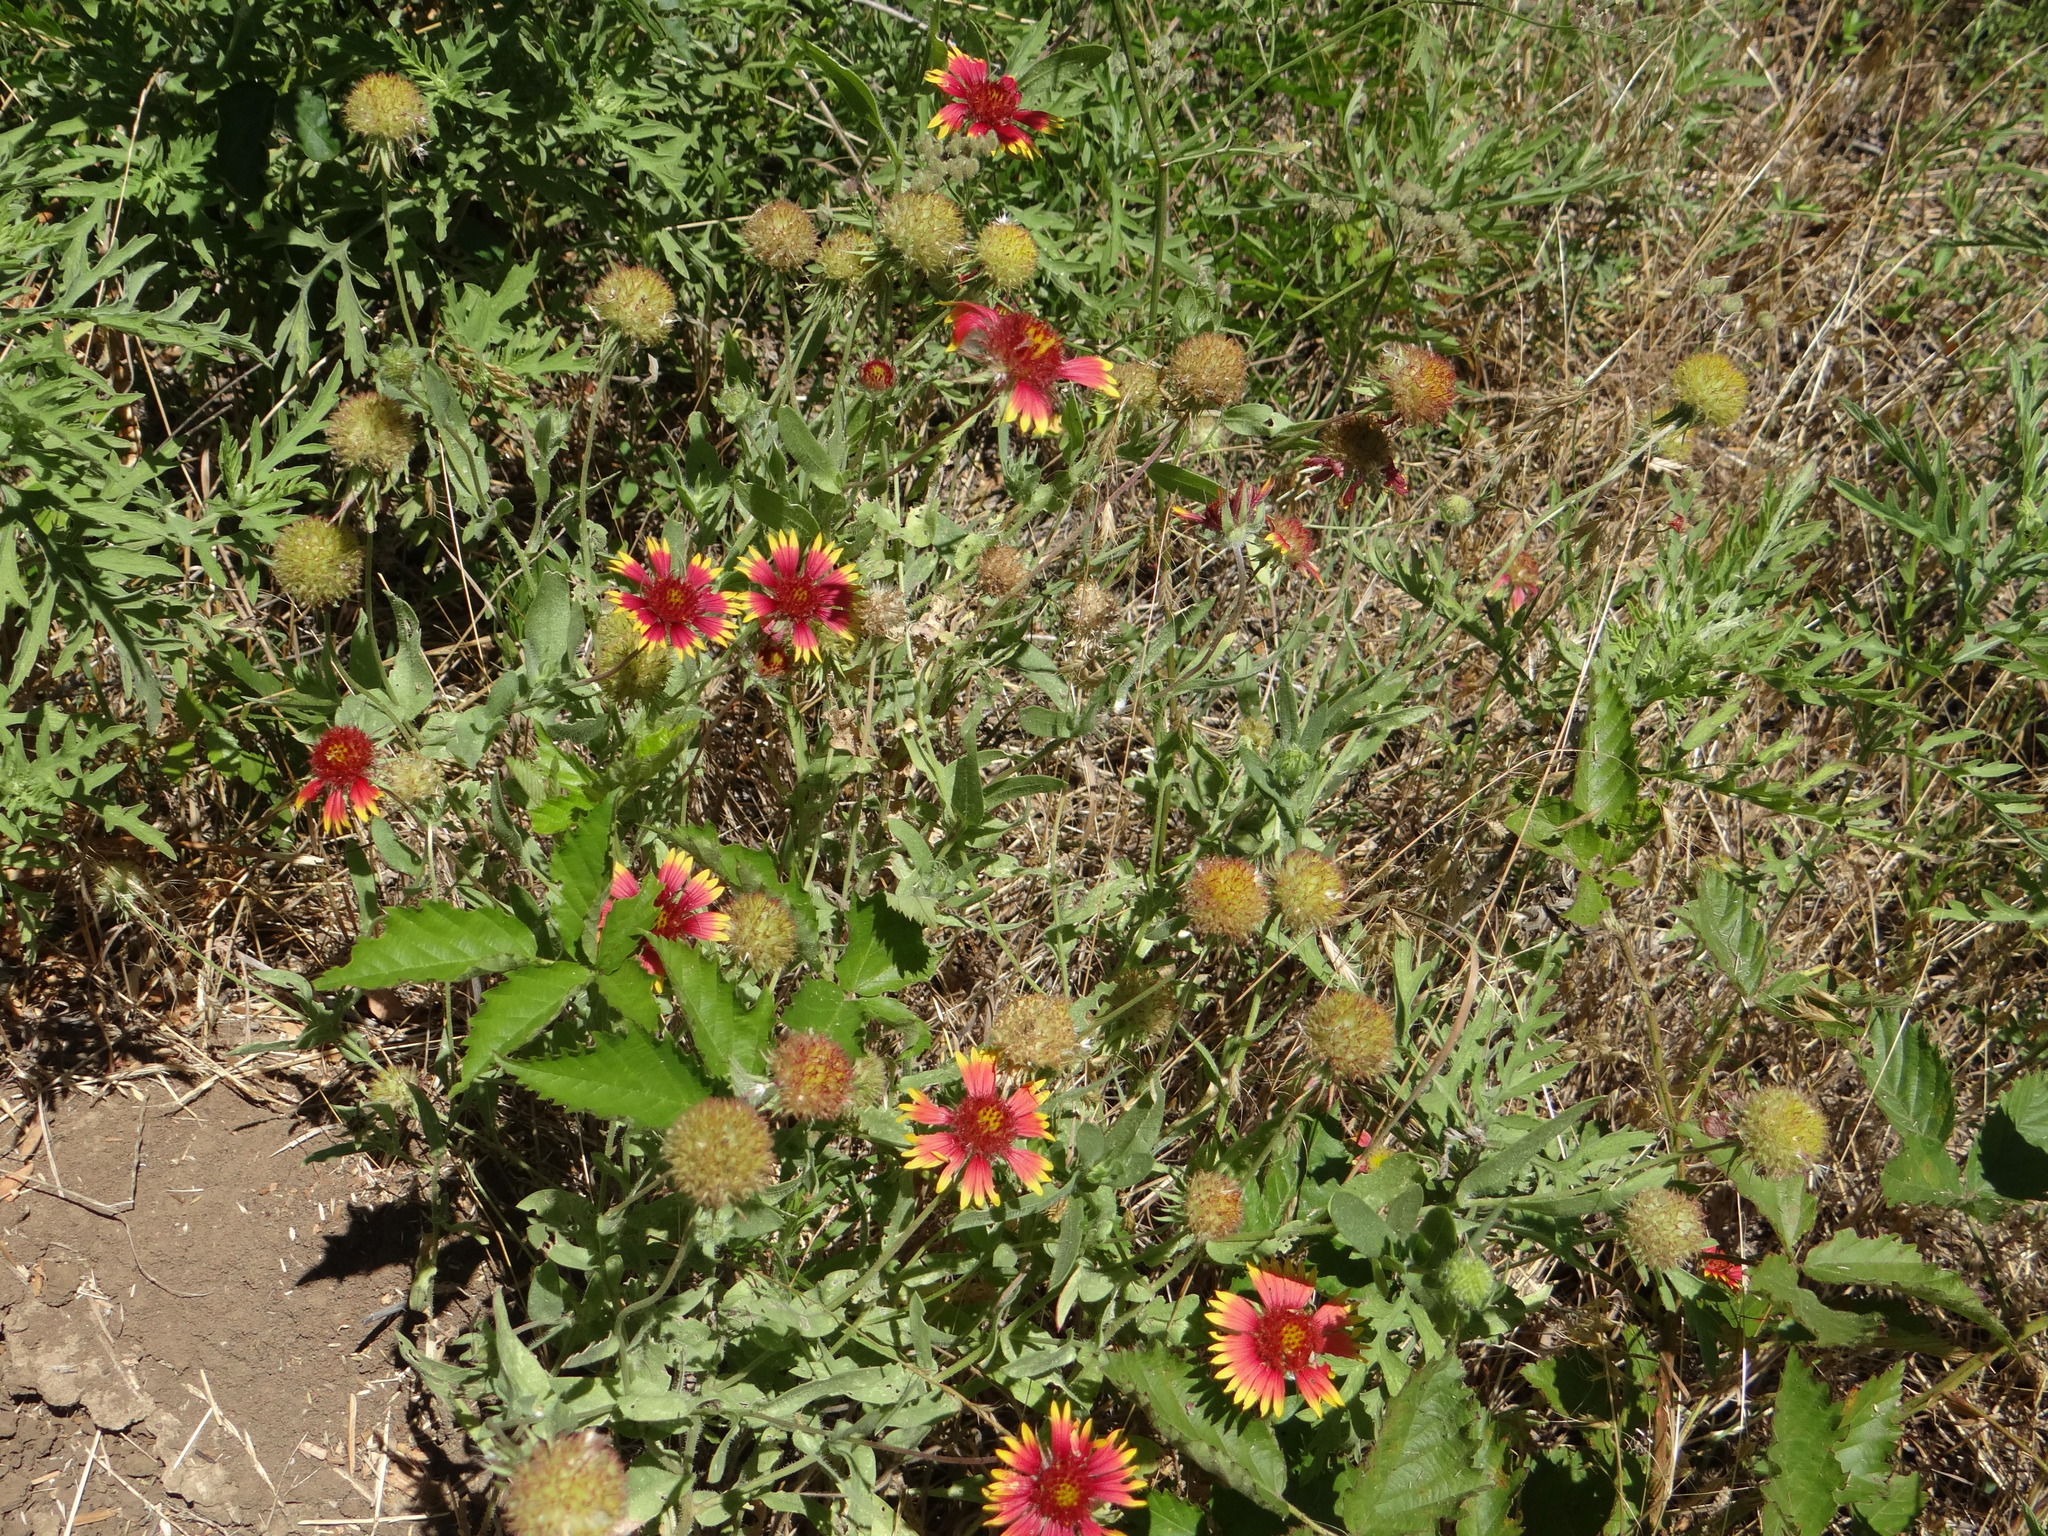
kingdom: Plantae
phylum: Tracheophyta
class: Magnoliopsida
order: Asterales
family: Asteraceae
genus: Gaillardia
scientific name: Gaillardia pulchella
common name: Firewheel
